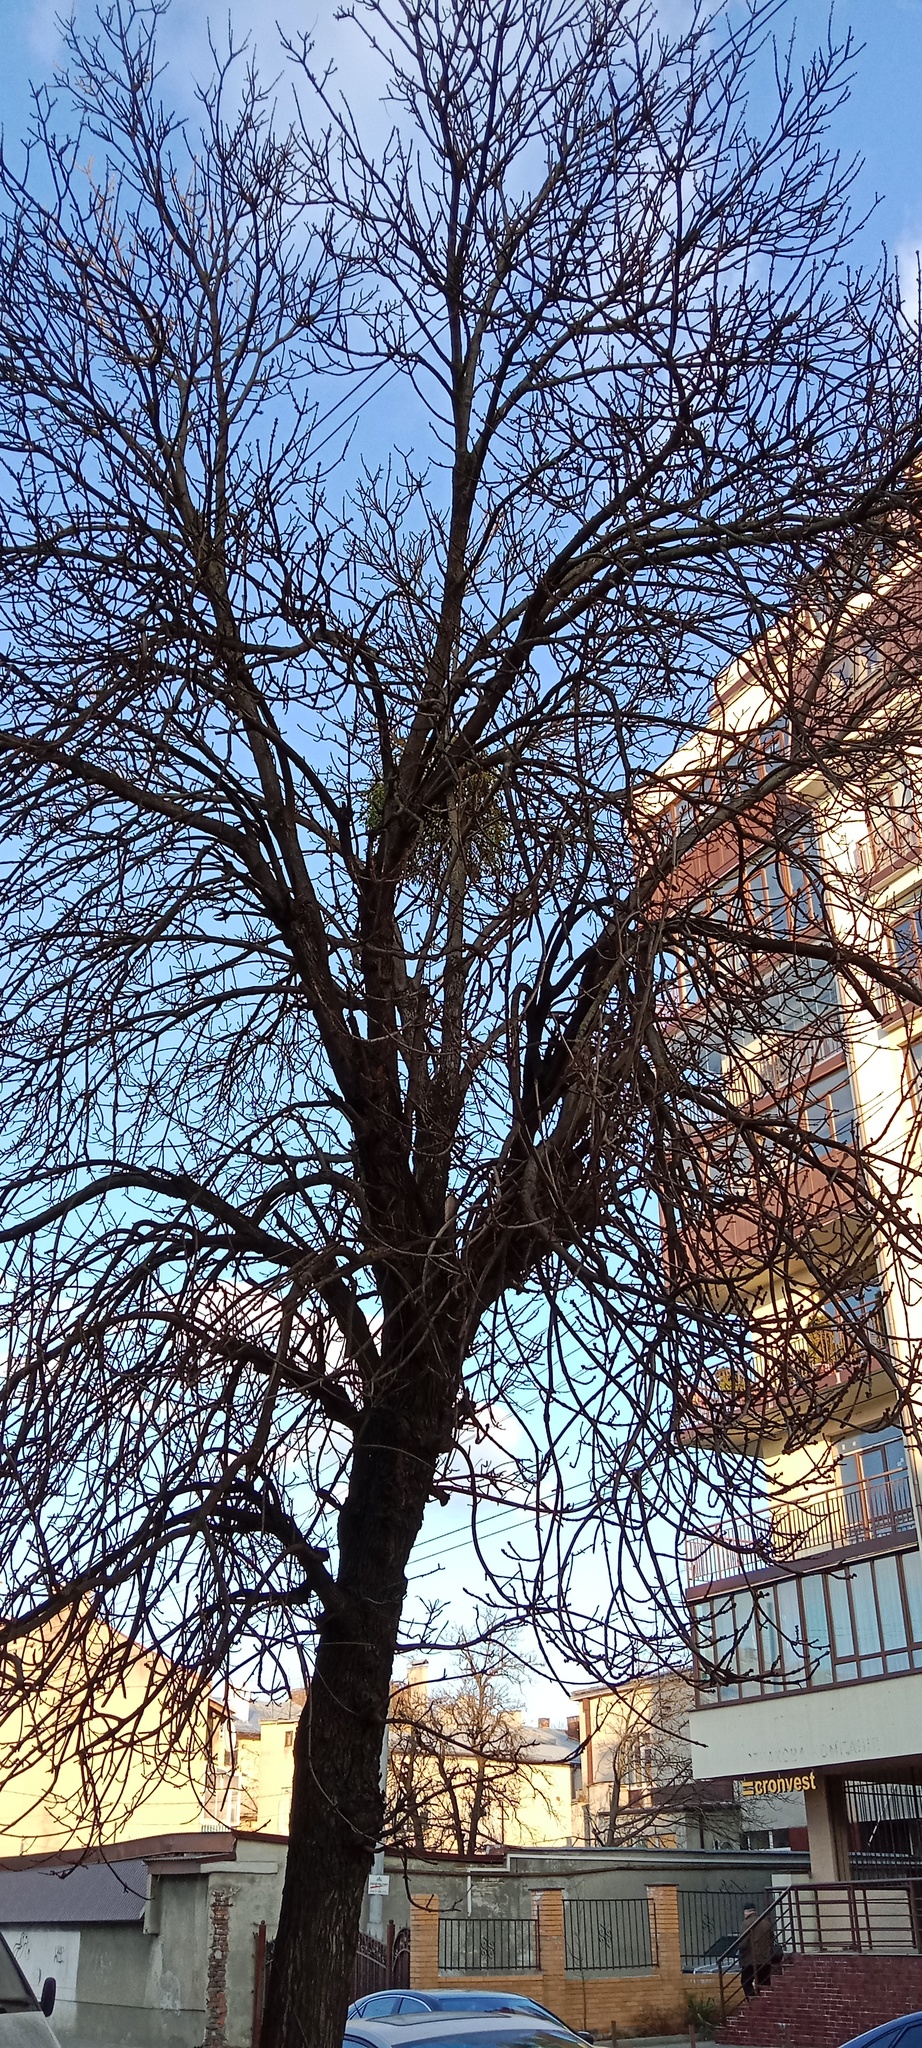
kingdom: Plantae
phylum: Tracheophyta
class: Magnoliopsida
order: Santalales
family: Viscaceae
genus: Viscum
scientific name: Viscum album
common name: Mistletoe
